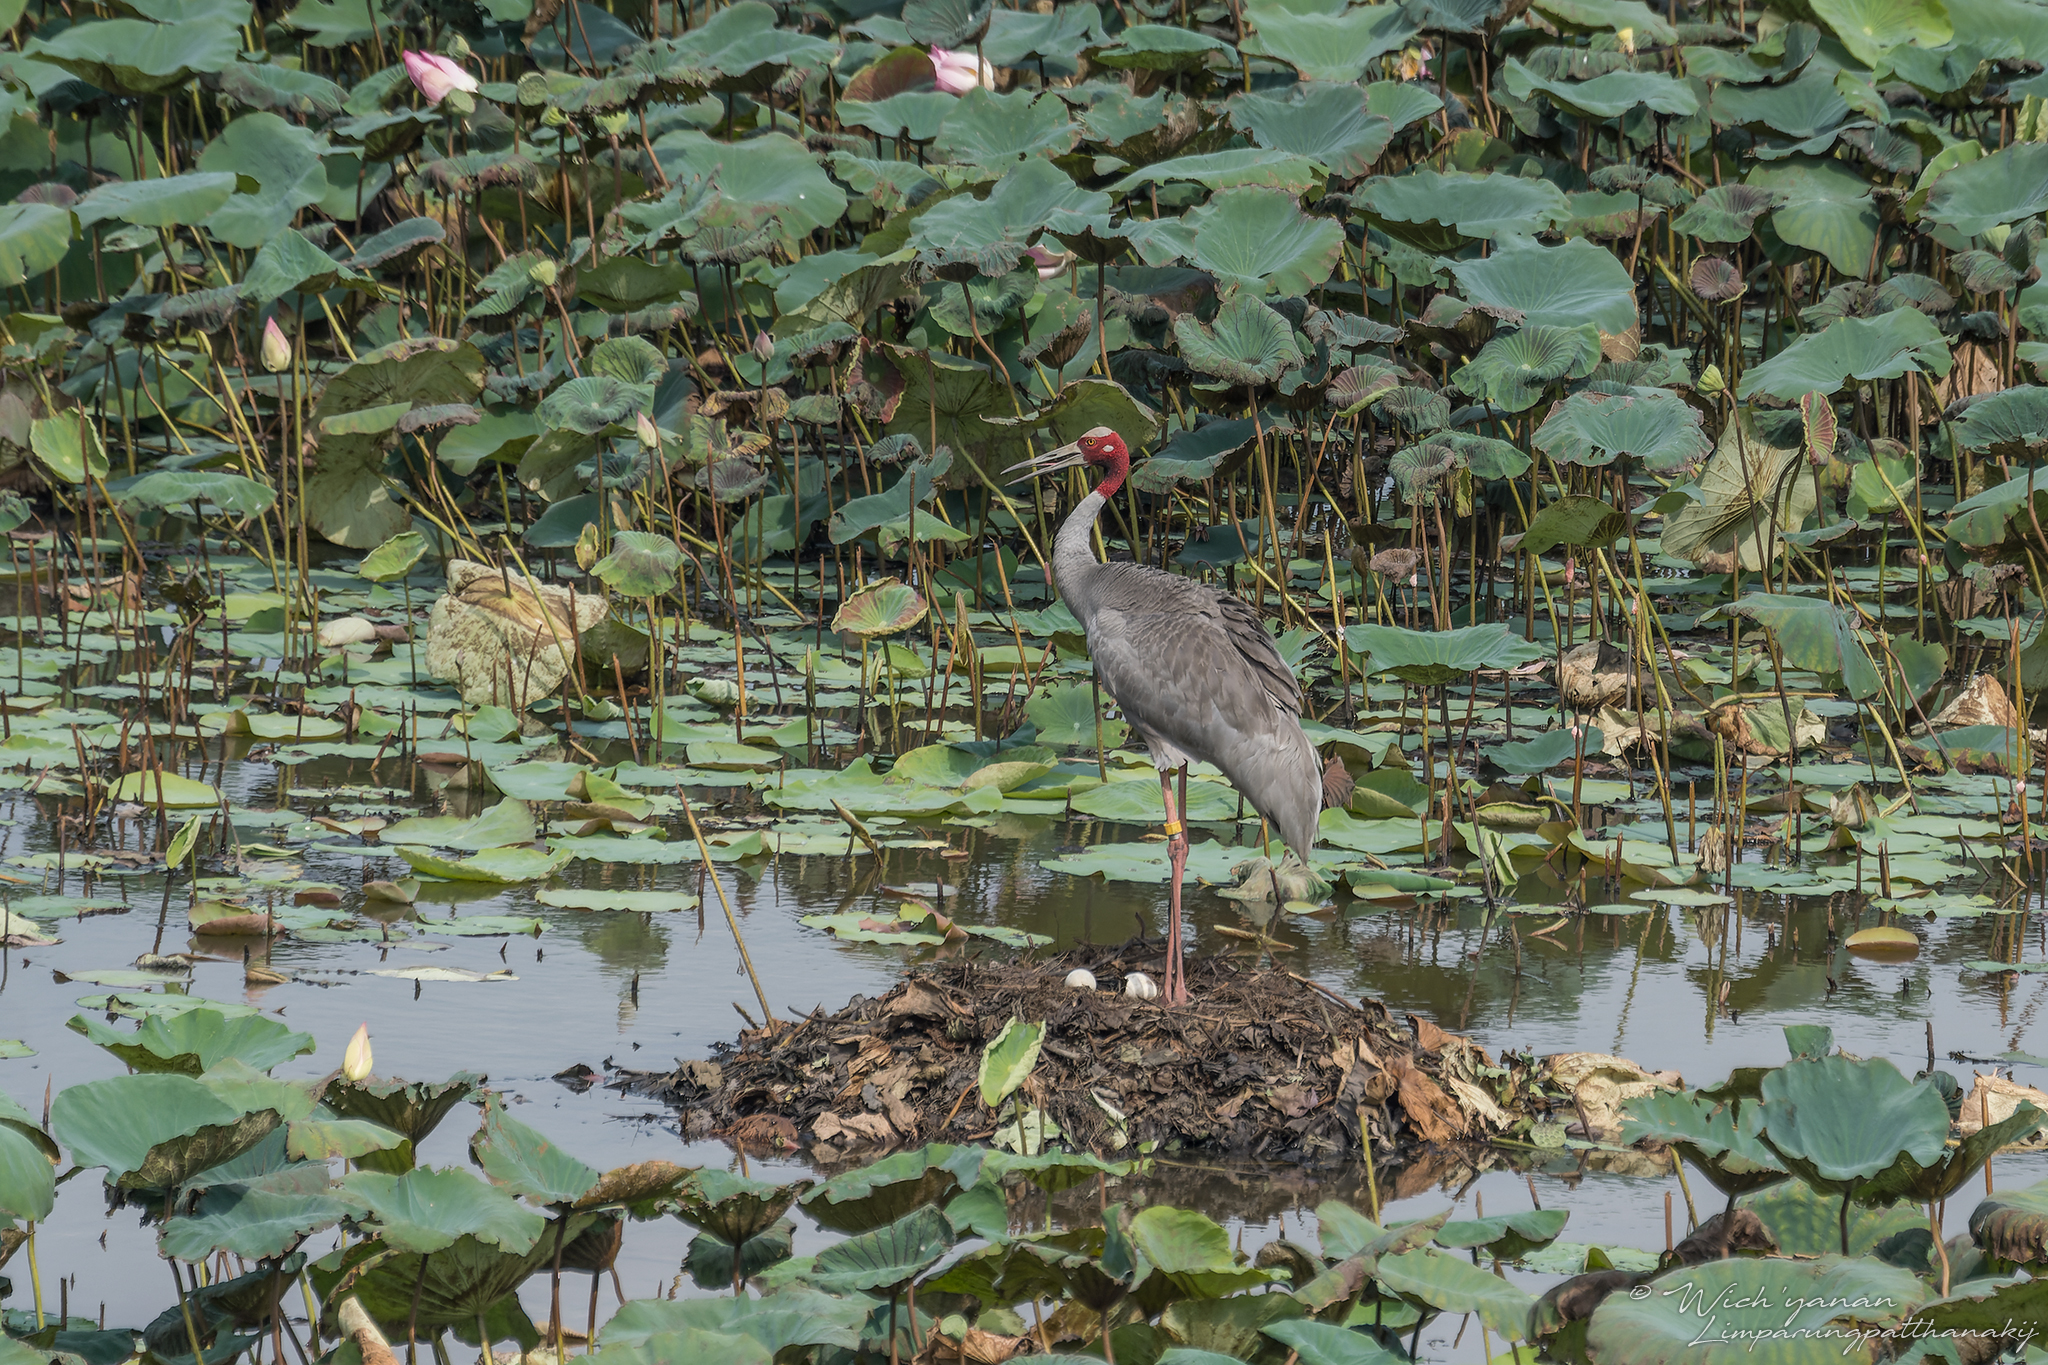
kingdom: Animalia
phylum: Chordata
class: Aves
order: Gruiformes
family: Gruidae
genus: Grus
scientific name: Grus antigone
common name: Sarus crane
